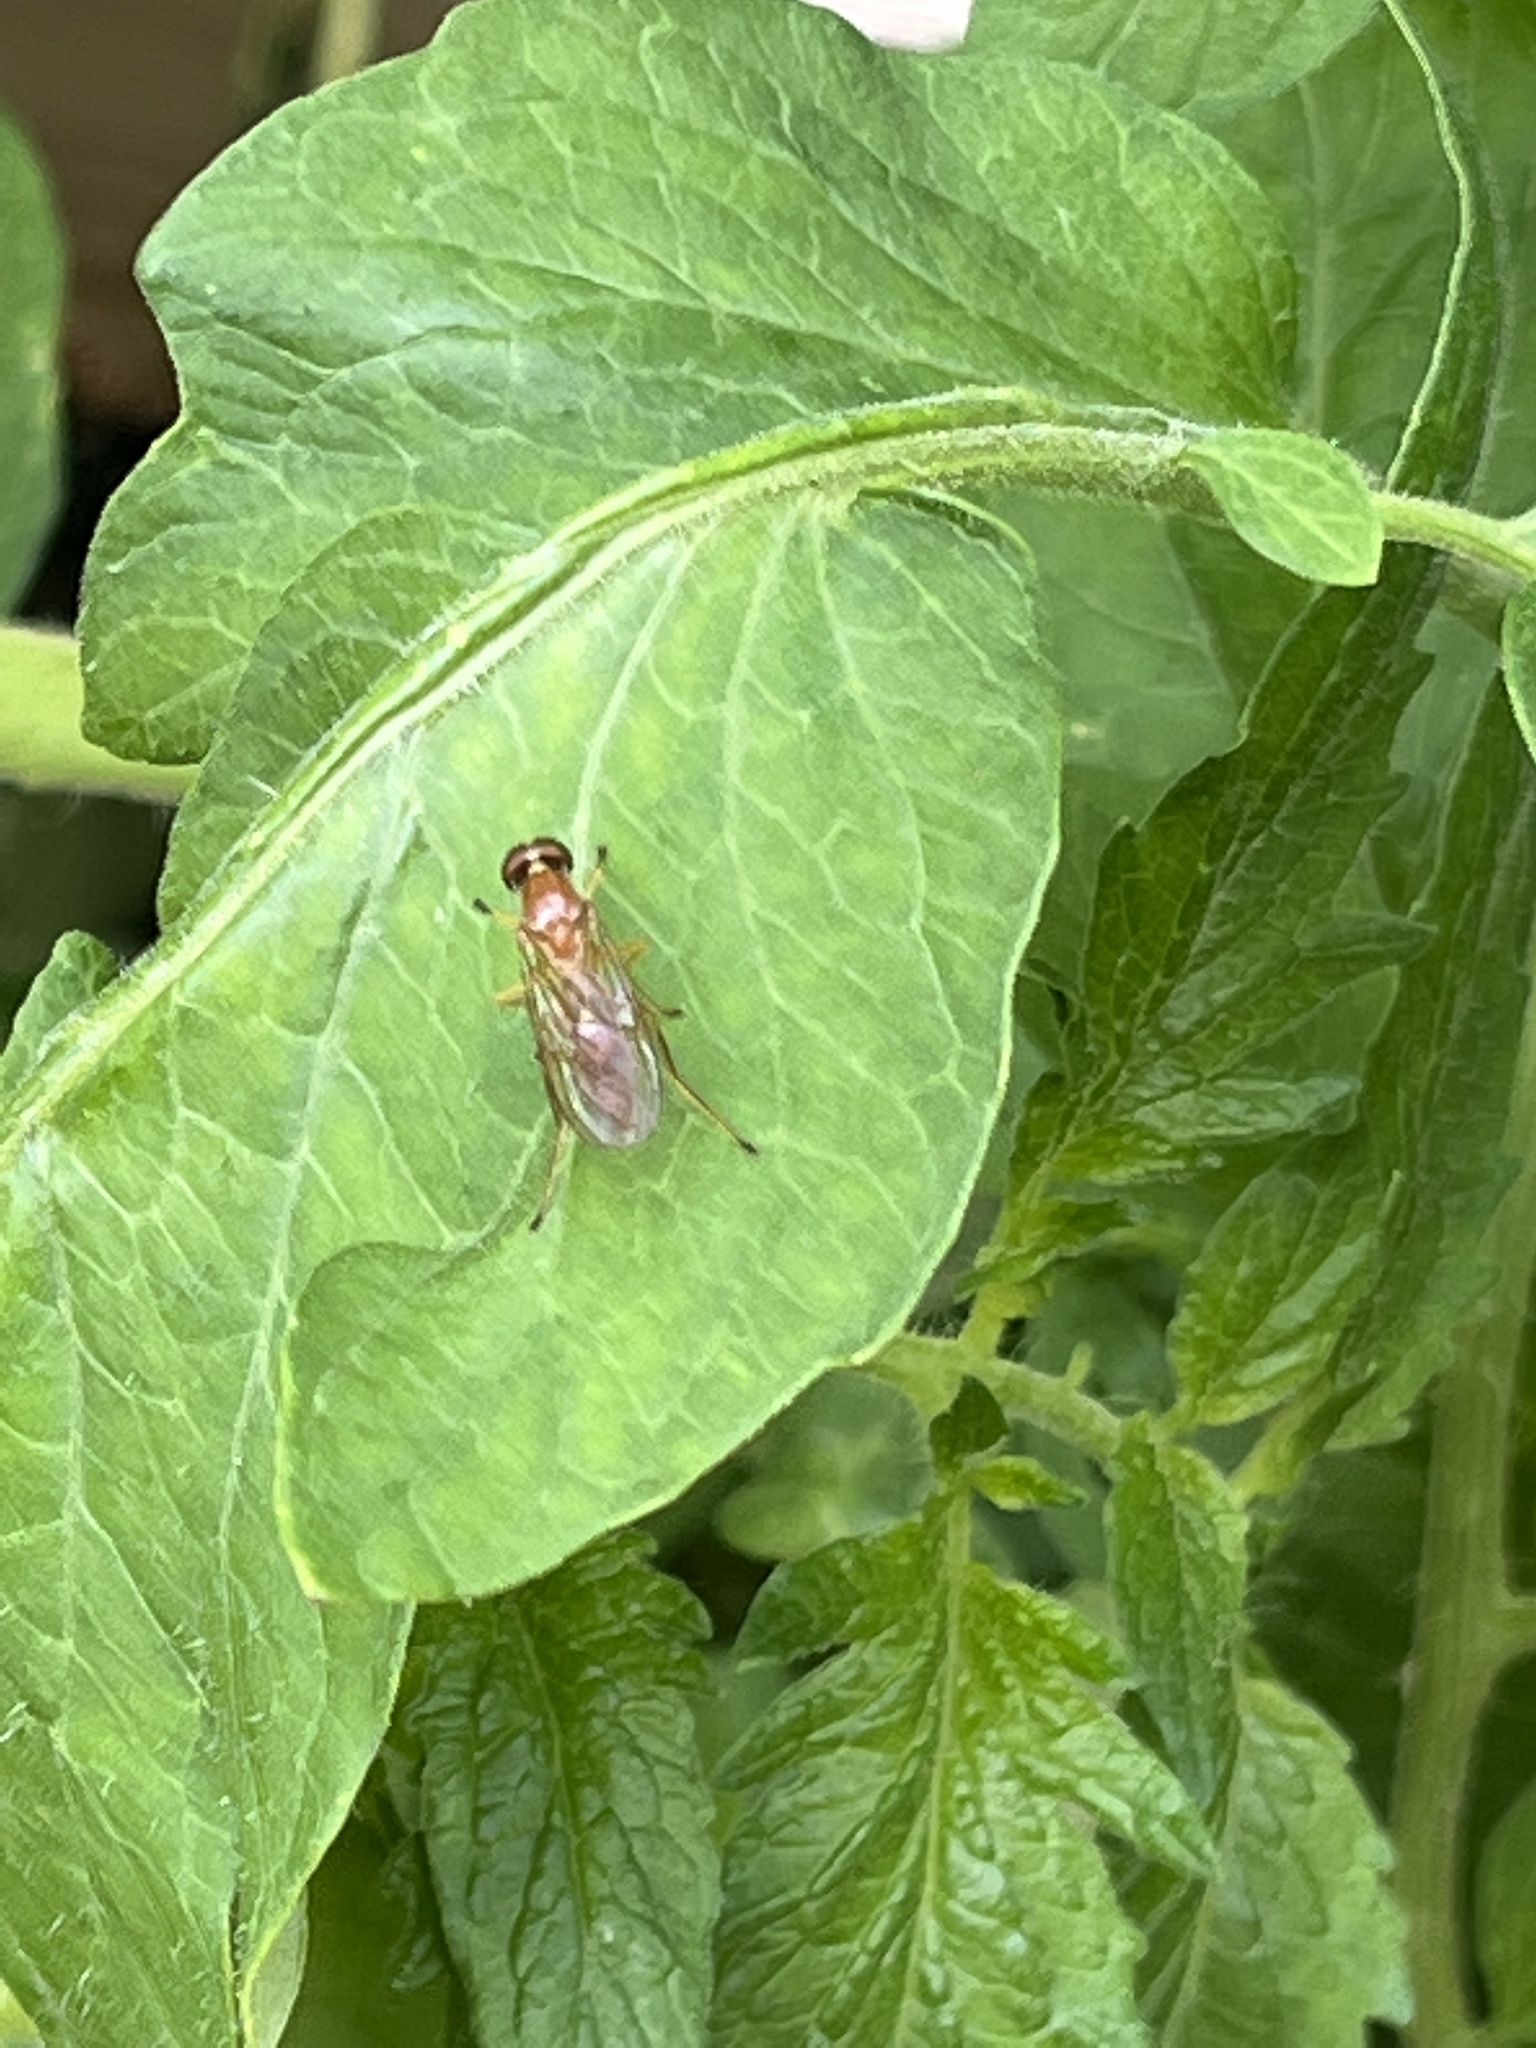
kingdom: Animalia
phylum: Arthropoda
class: Insecta
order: Diptera
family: Stratiomyidae
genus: Ptecticus
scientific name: Ptecticus trivittatus
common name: Compost fly
